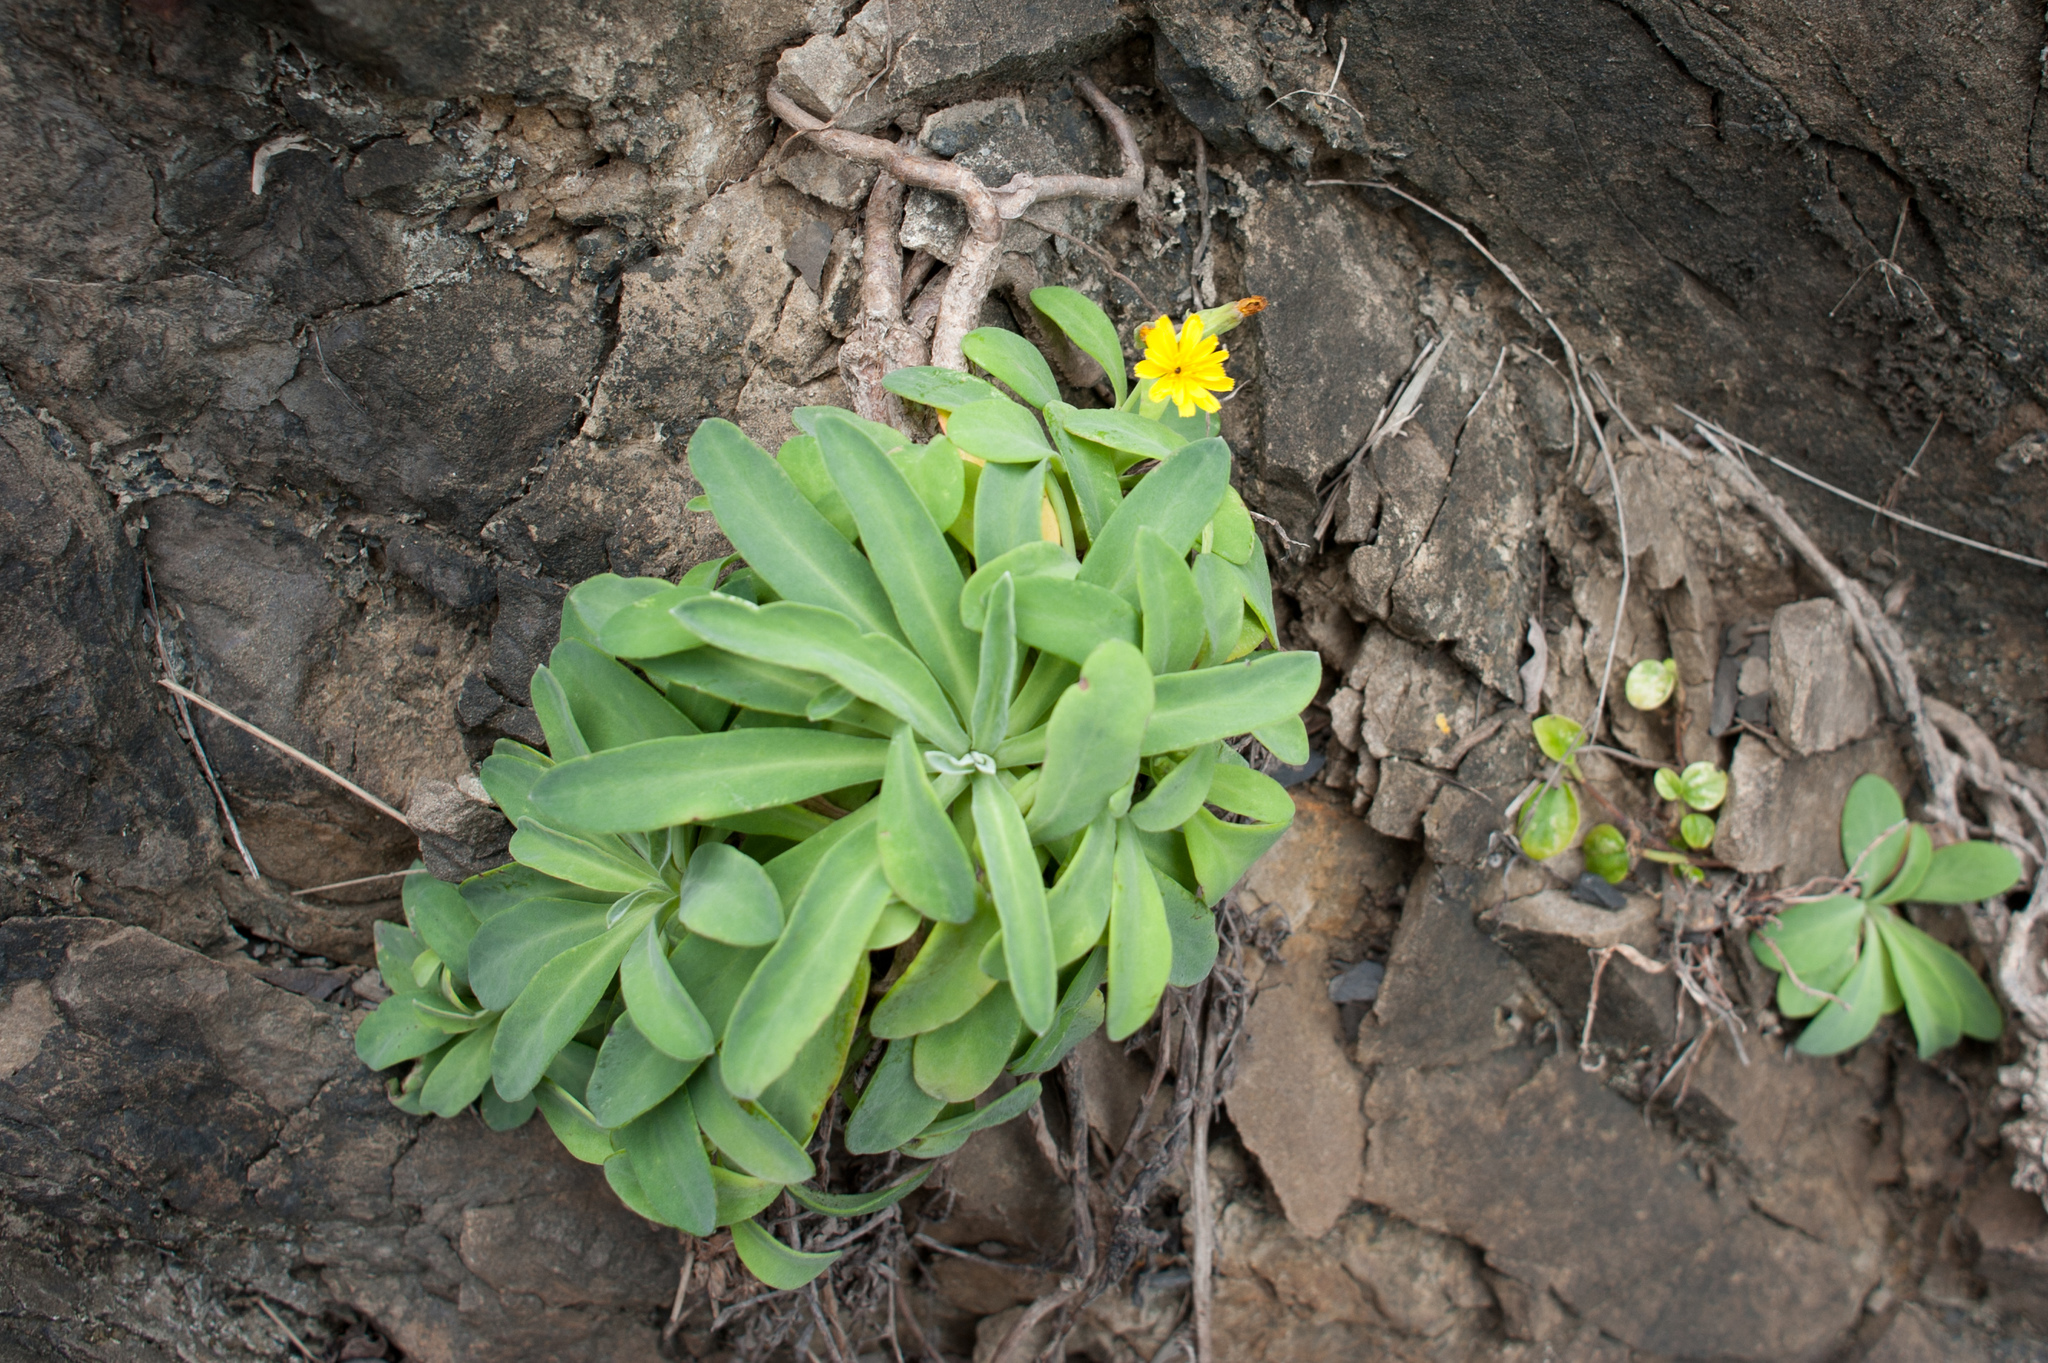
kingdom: Plantae
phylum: Tracheophyta
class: Magnoliopsida
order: Asterales
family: Asteraceae
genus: Crepidiastrum
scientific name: Crepidiastrum lanceolatum
